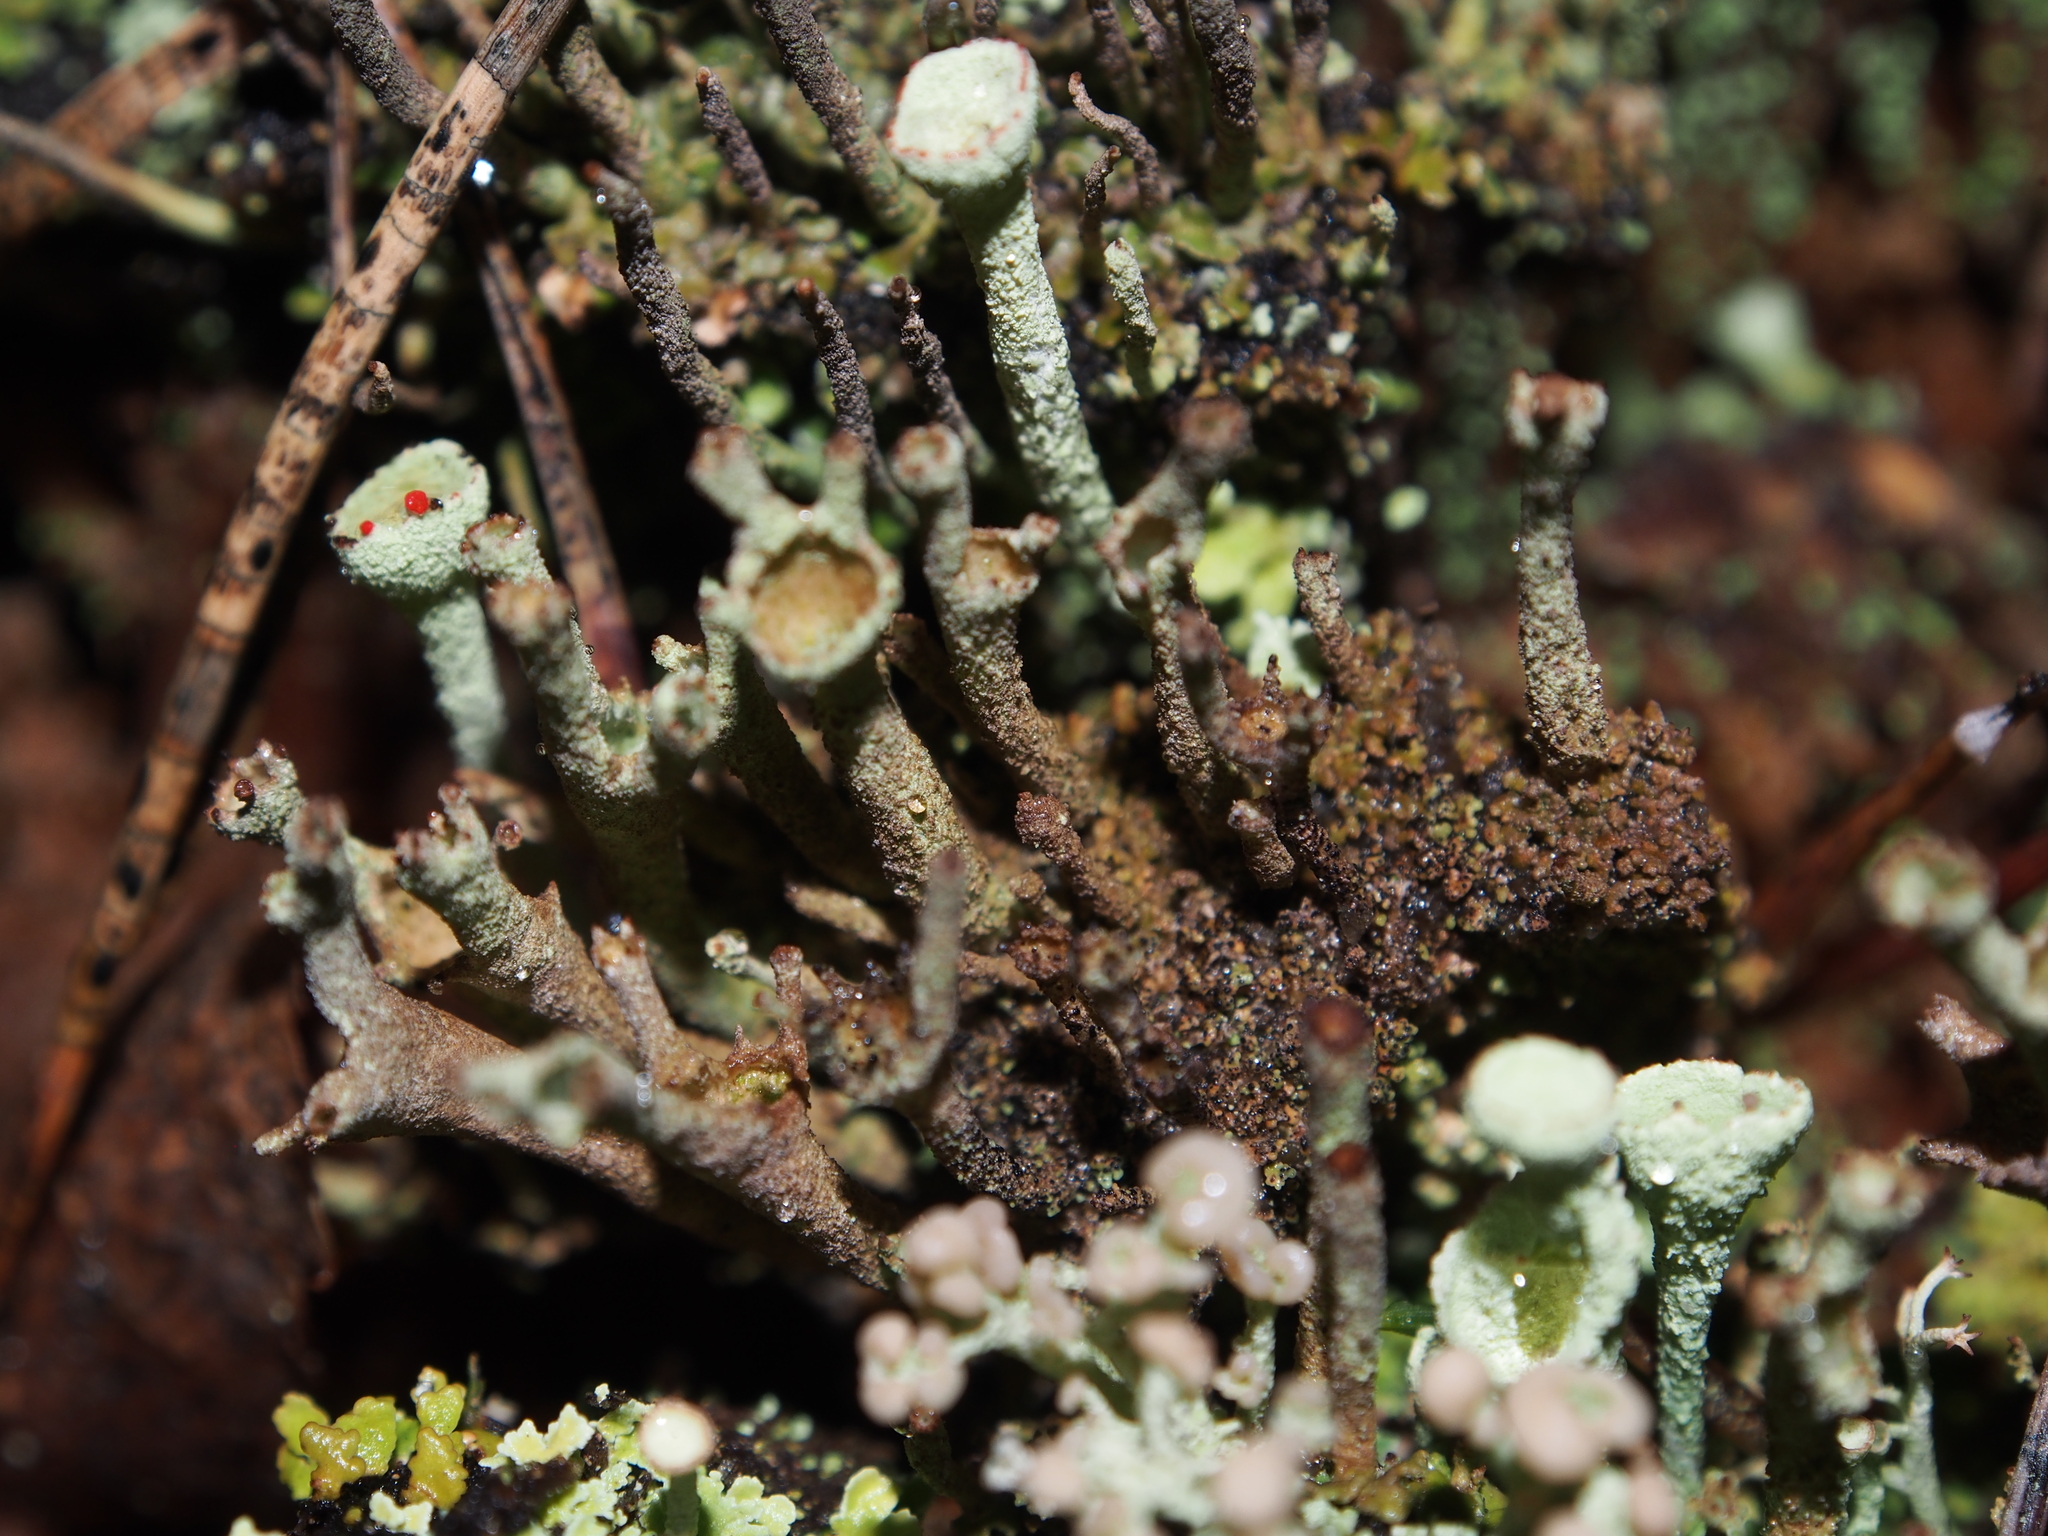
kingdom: Fungi
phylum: Ascomycota
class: Lecanoromycetes
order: Lecanorales
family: Cladoniaceae
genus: Cladonia
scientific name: Cladonia deformis
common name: Lesser sulphur-cup lichen
